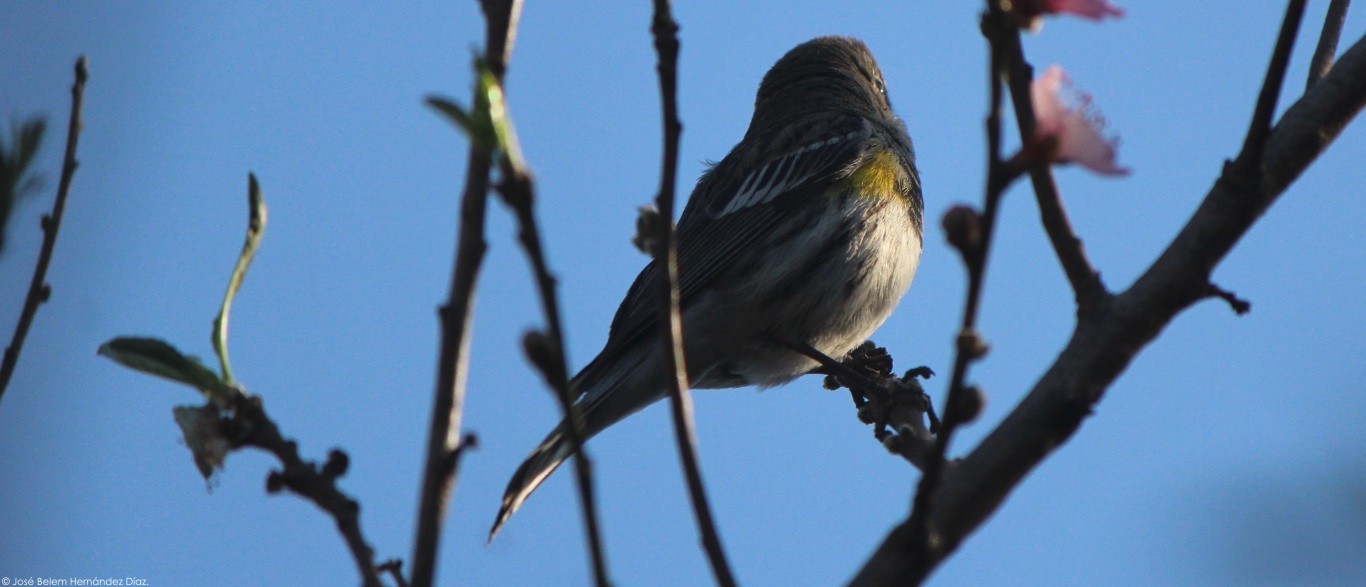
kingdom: Animalia
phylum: Chordata
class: Aves
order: Passeriformes
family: Parulidae
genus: Setophaga
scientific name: Setophaga auduboni
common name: Audubon's warbler
